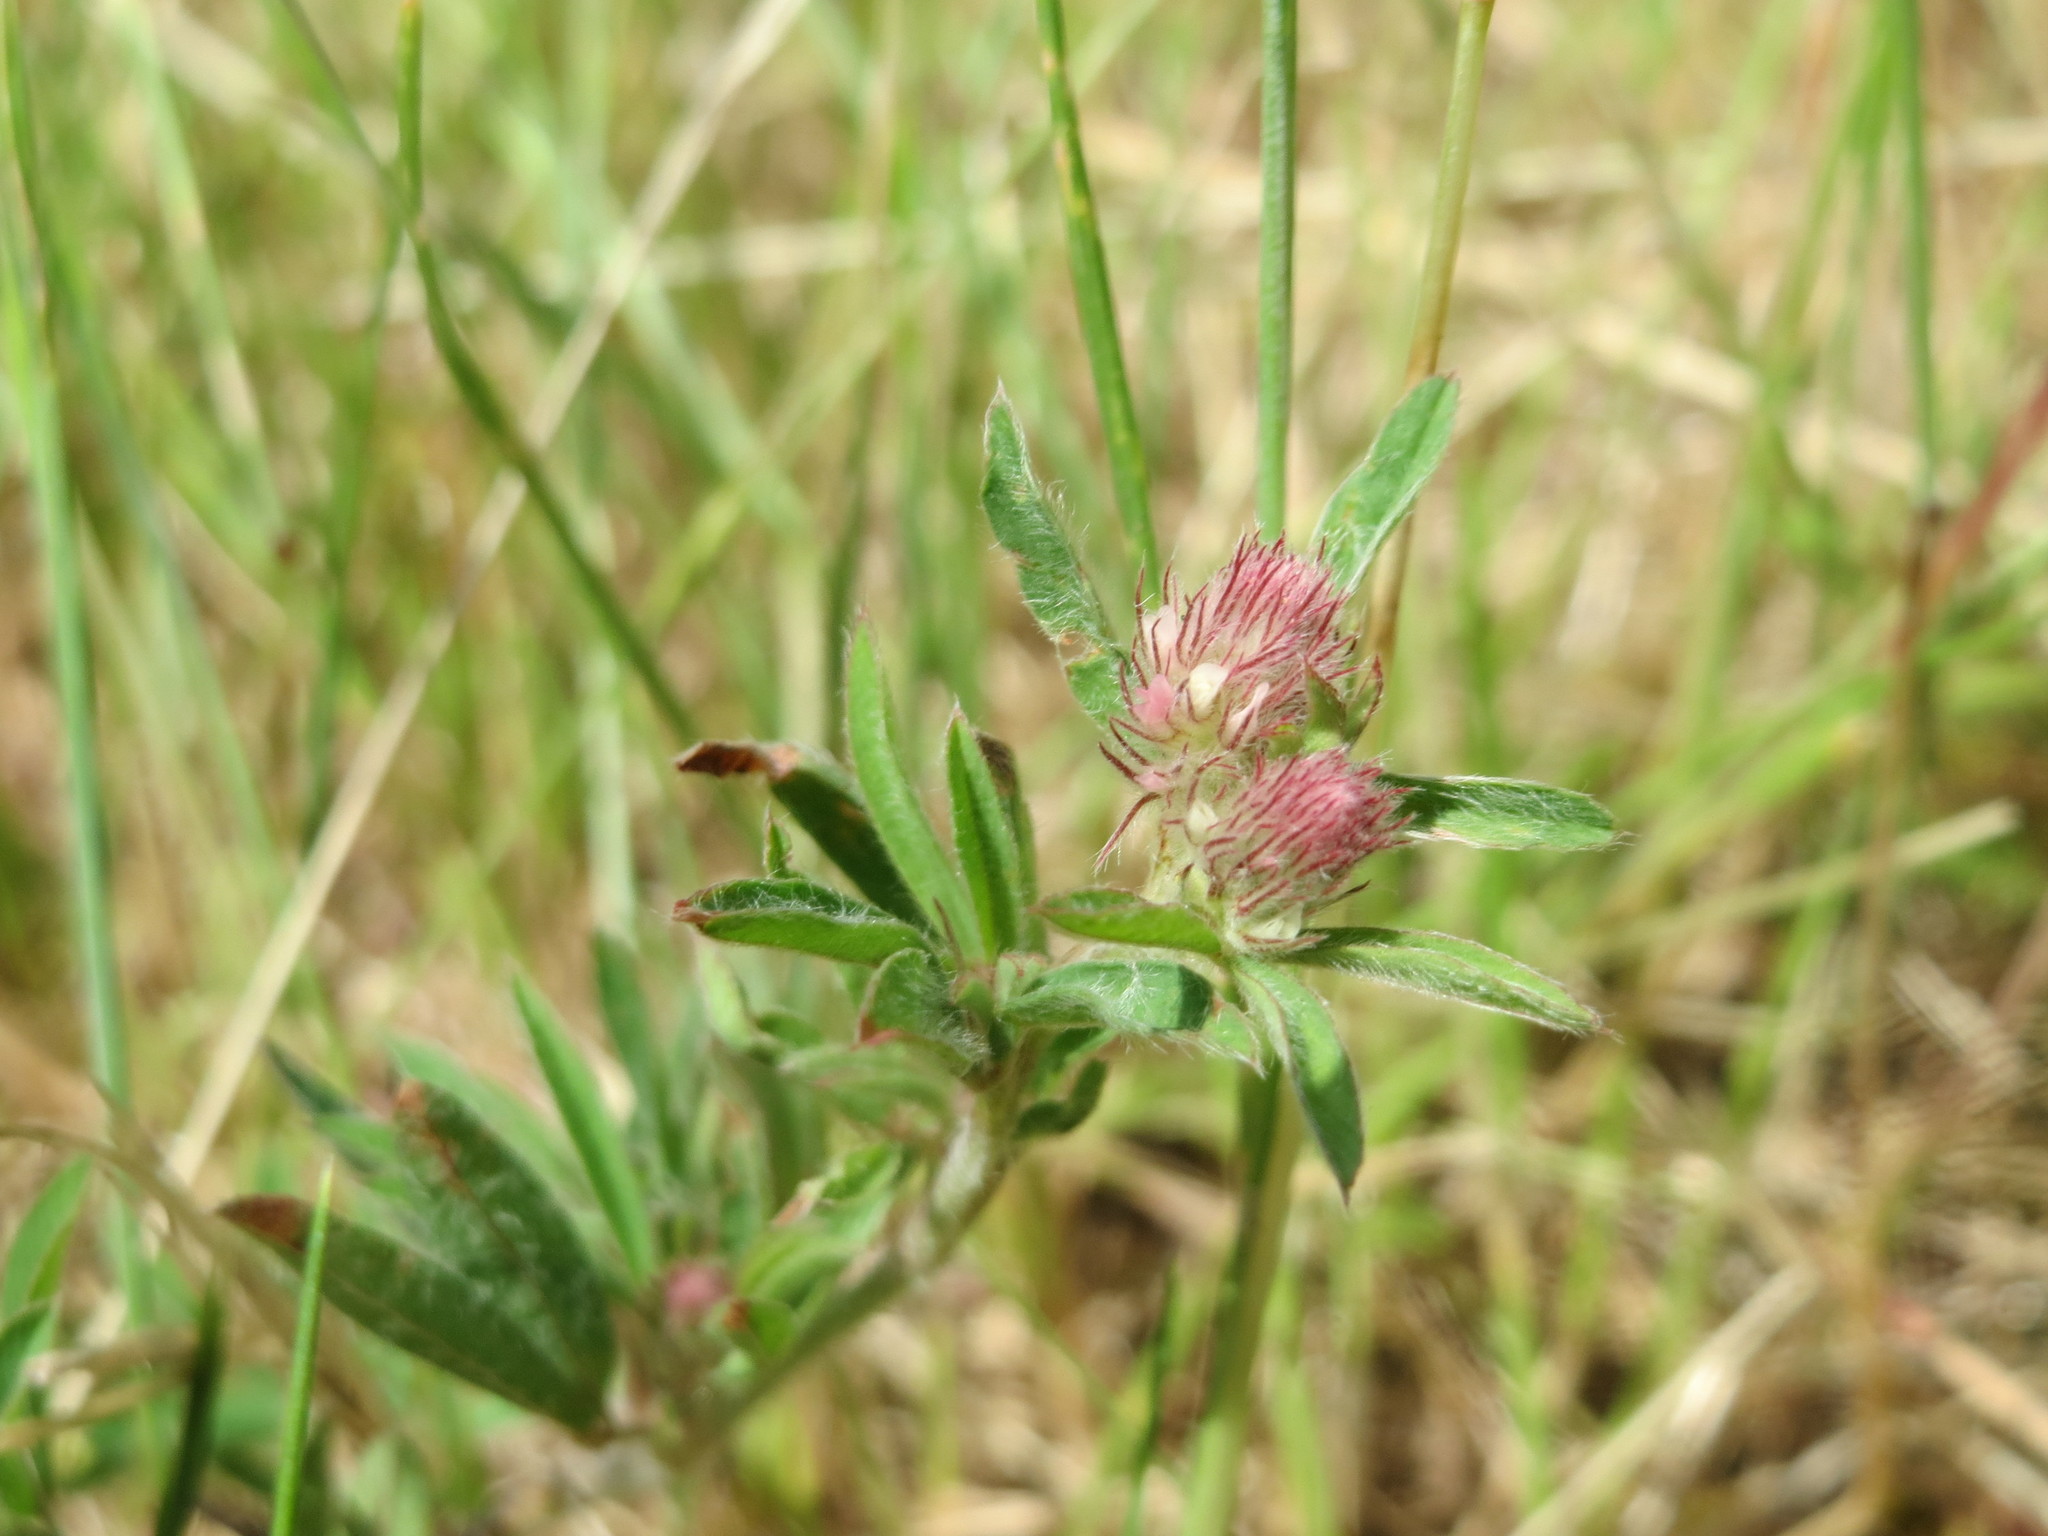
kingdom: Plantae
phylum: Tracheophyta
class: Magnoliopsida
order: Fabales
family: Fabaceae
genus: Trifolium
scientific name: Trifolium arvense
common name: Hare's-foot clover
